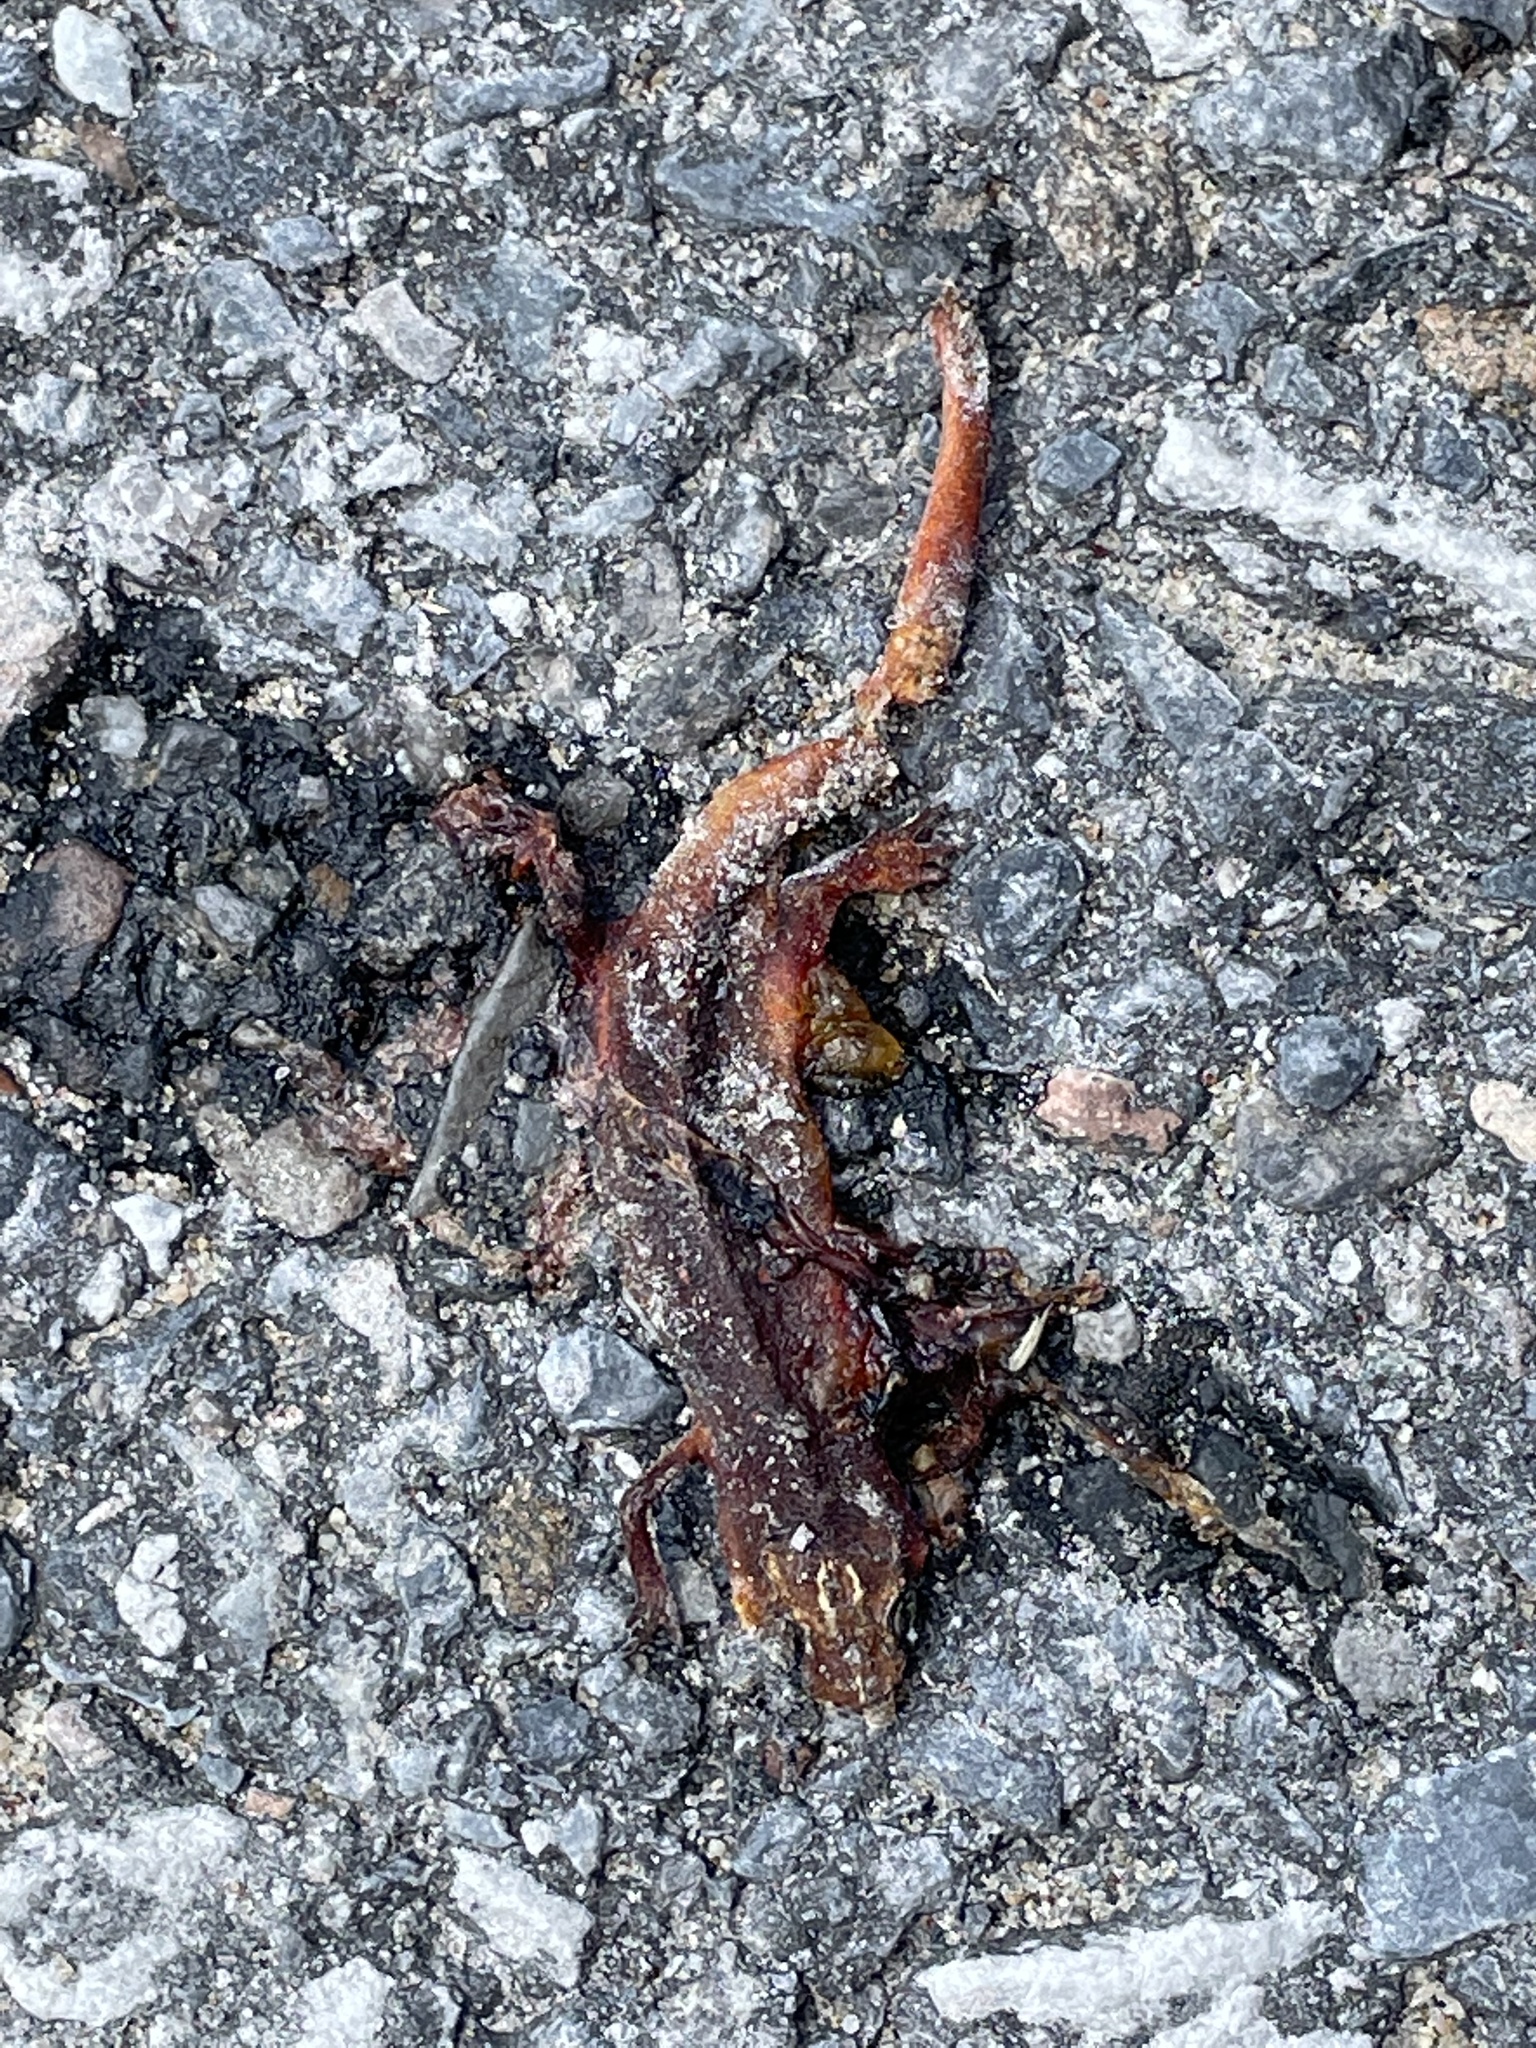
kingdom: Animalia
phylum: Chordata
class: Amphibia
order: Caudata
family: Salamandridae
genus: Notophthalmus
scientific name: Notophthalmus viridescens
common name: Eastern newt
